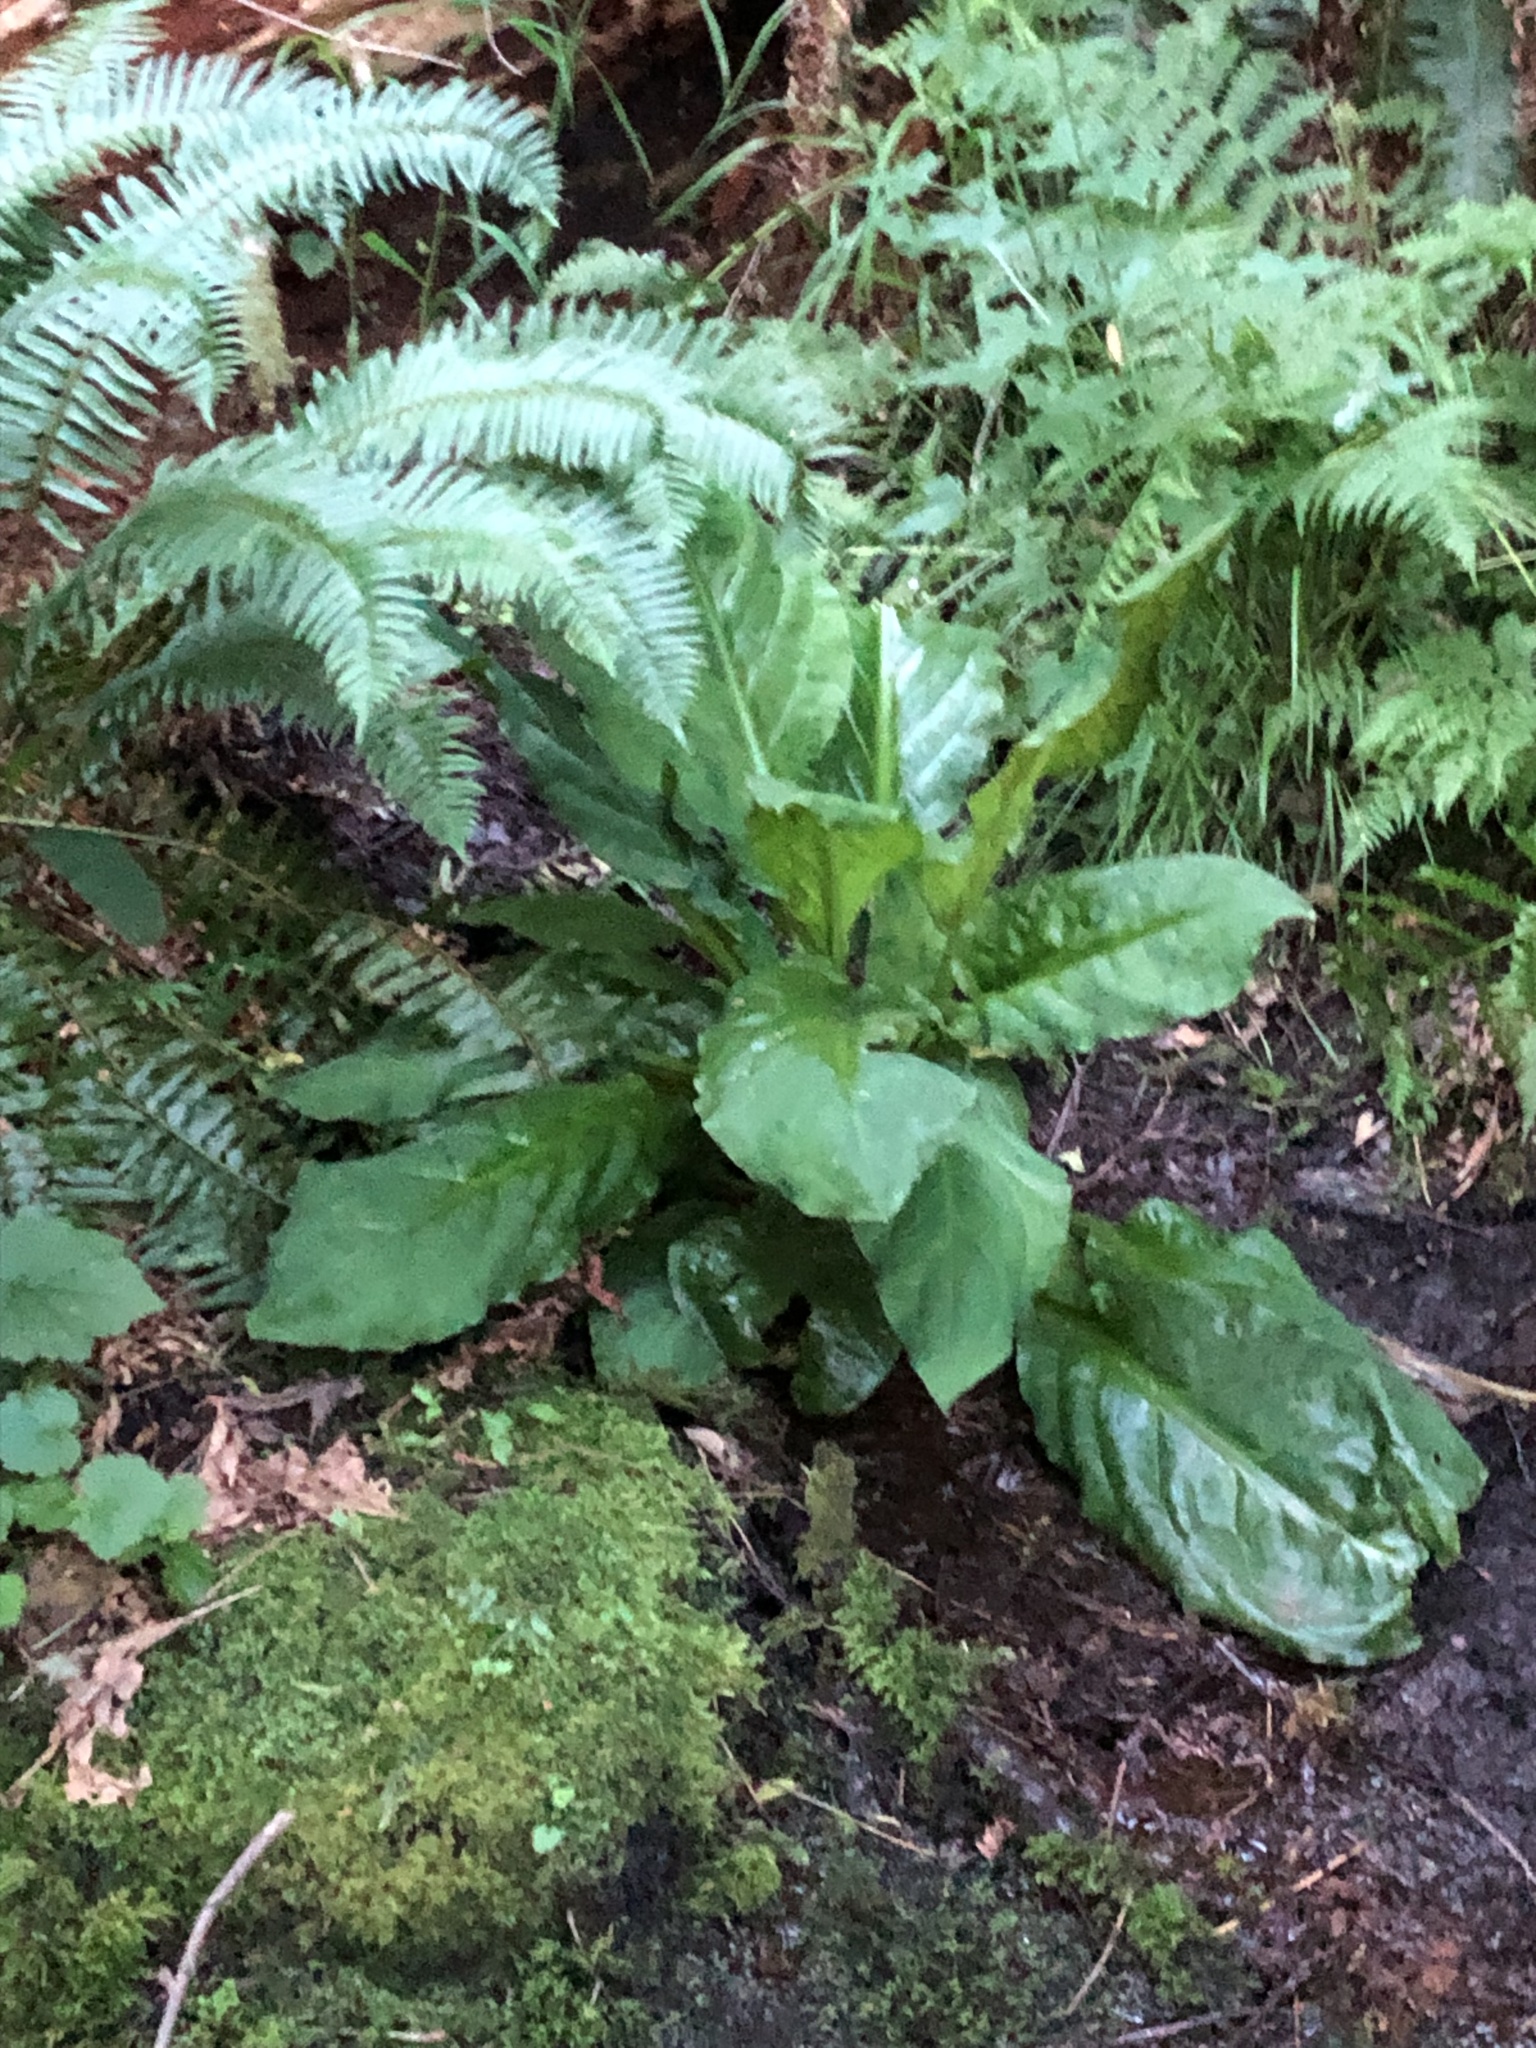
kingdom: Plantae
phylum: Tracheophyta
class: Liliopsida
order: Alismatales
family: Araceae
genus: Lysichiton
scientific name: Lysichiton americanus
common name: American skunk cabbage
